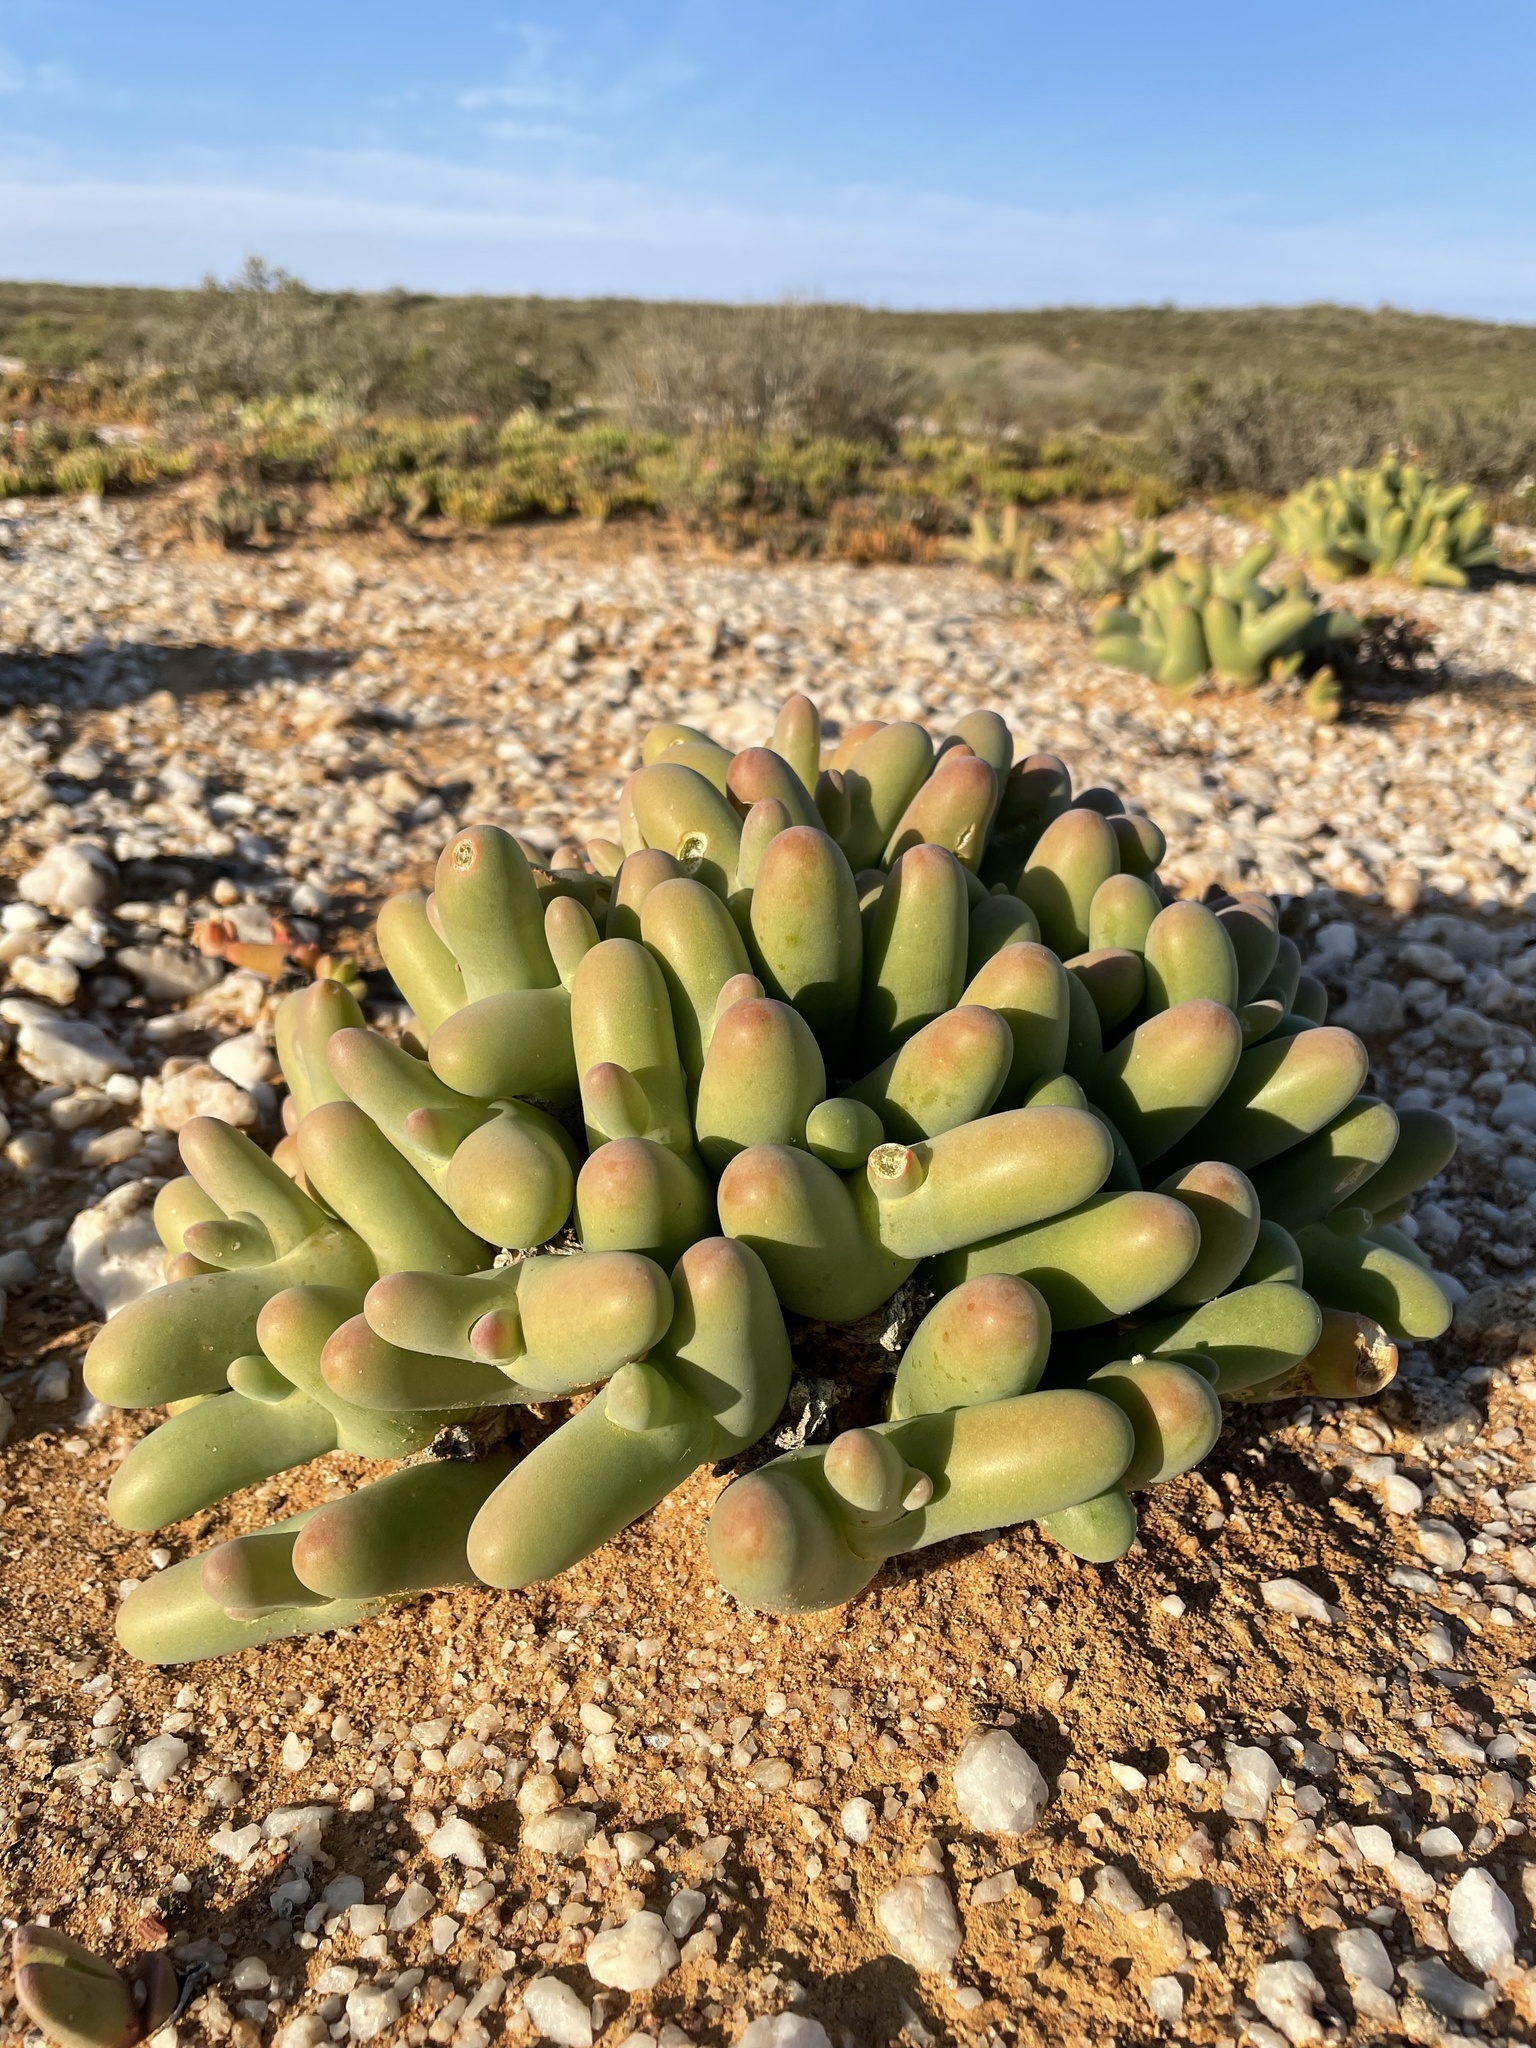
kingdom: Plantae
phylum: Tracheophyta
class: Magnoliopsida
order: Caryophyllales
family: Aizoaceae
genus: Mesembryanthemum
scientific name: Mesembryanthemum digitatum
